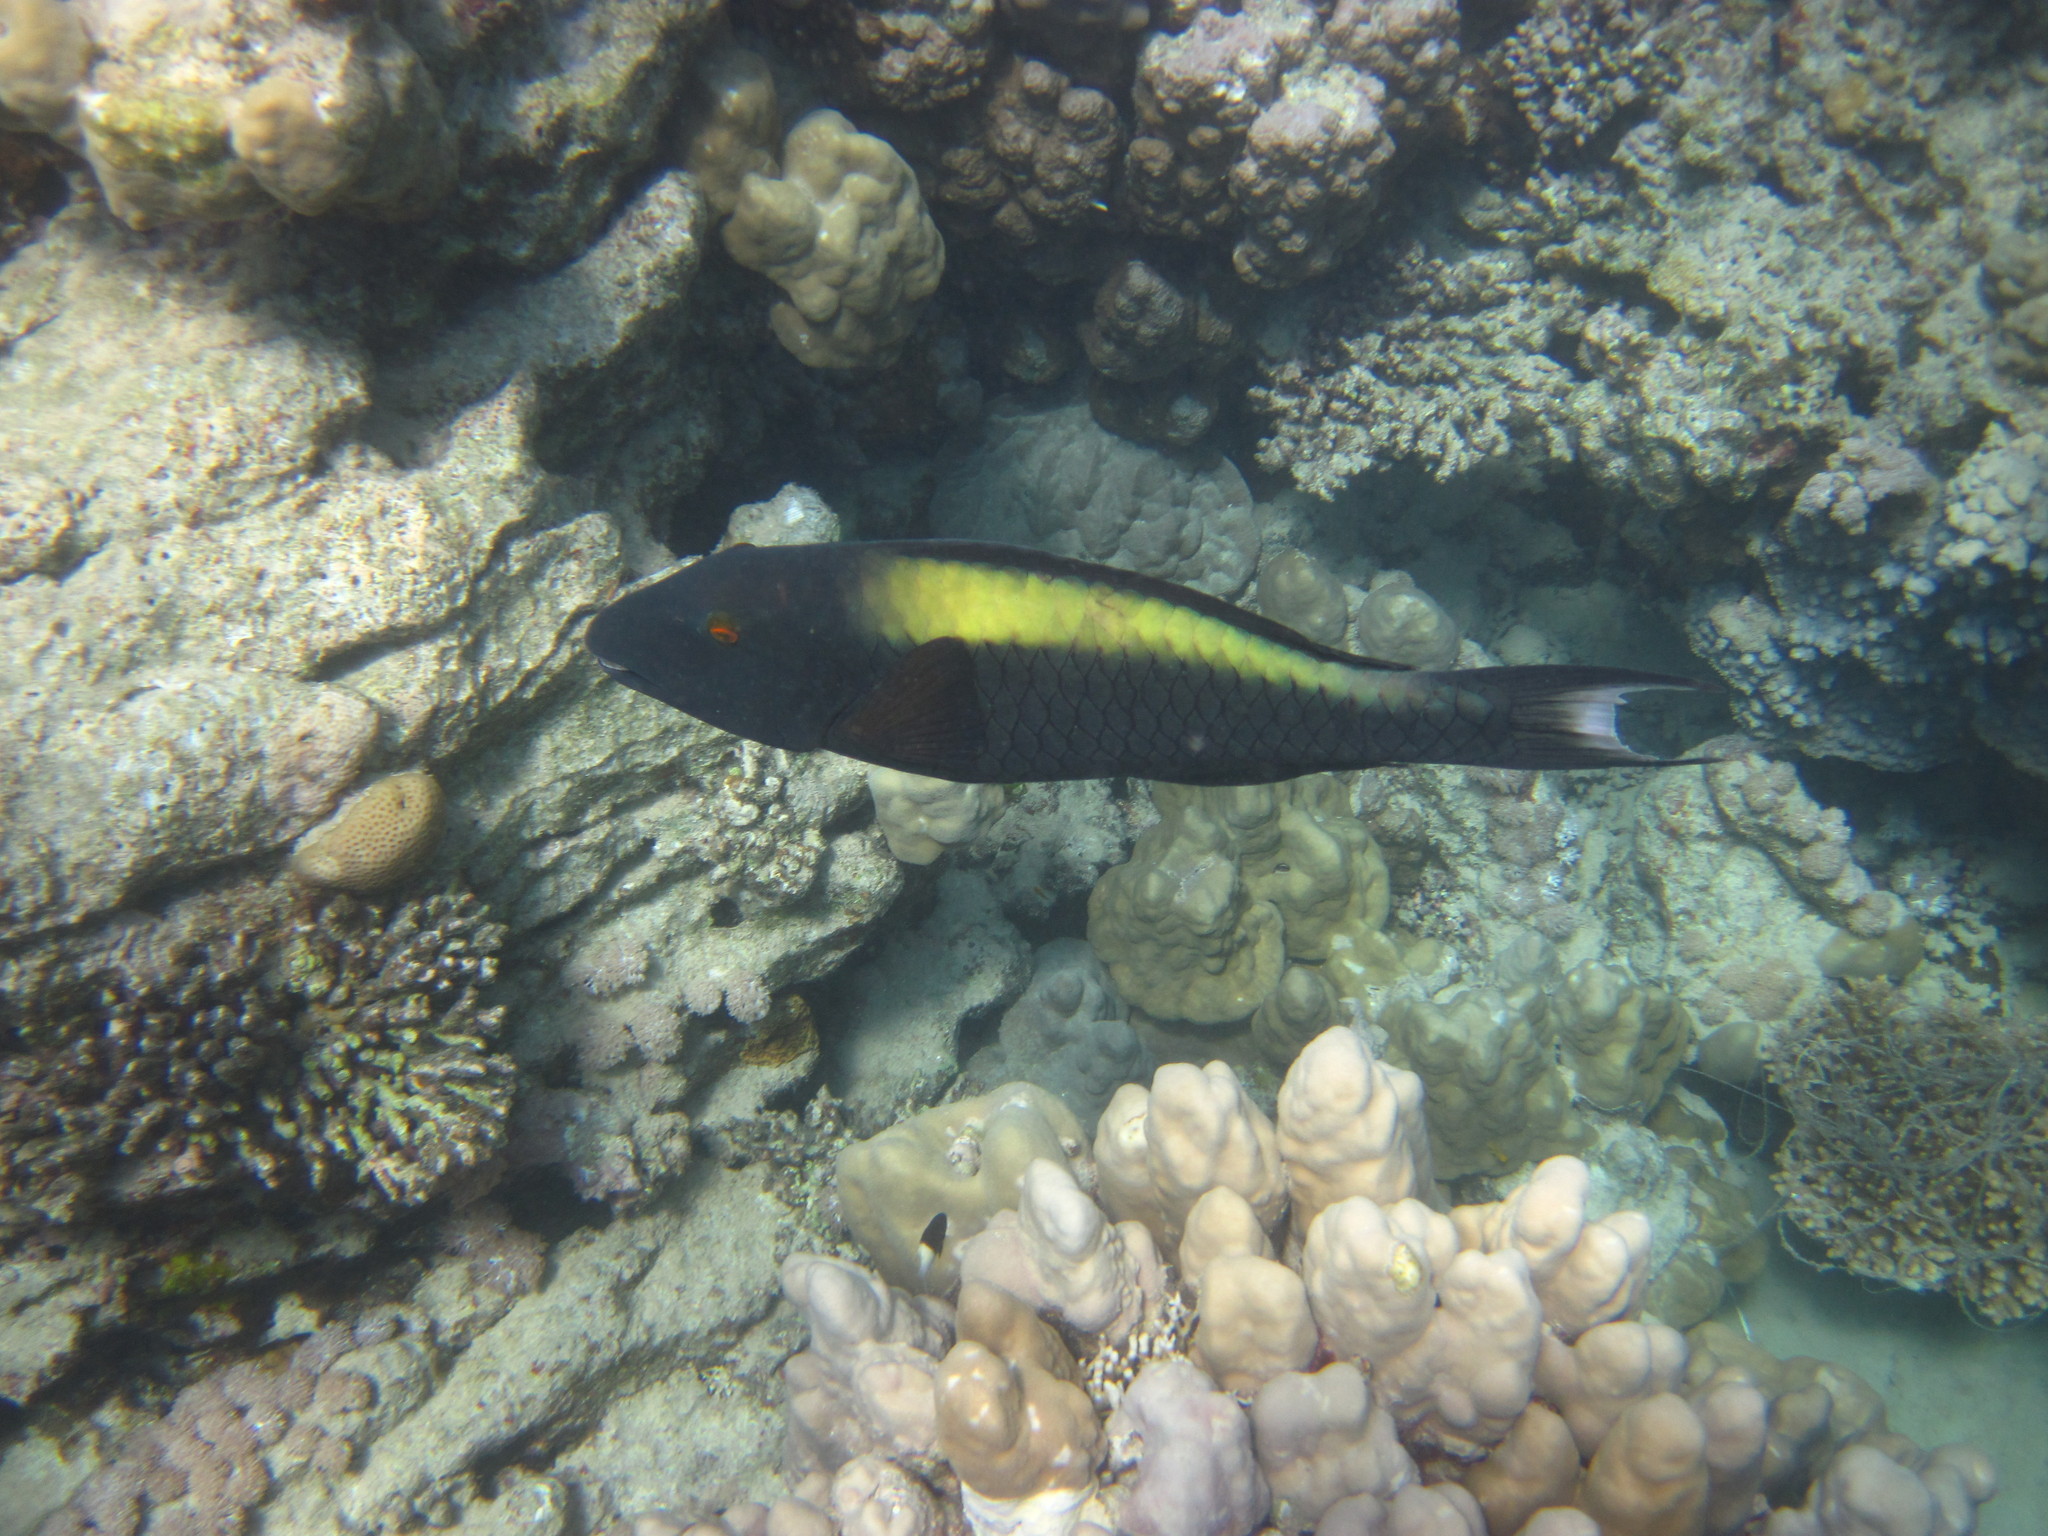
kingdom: Animalia
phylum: Chordata
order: Perciformes
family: Scaridae
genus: Cetoscarus
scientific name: Cetoscarus bicolor
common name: Bicolour parrotfish
